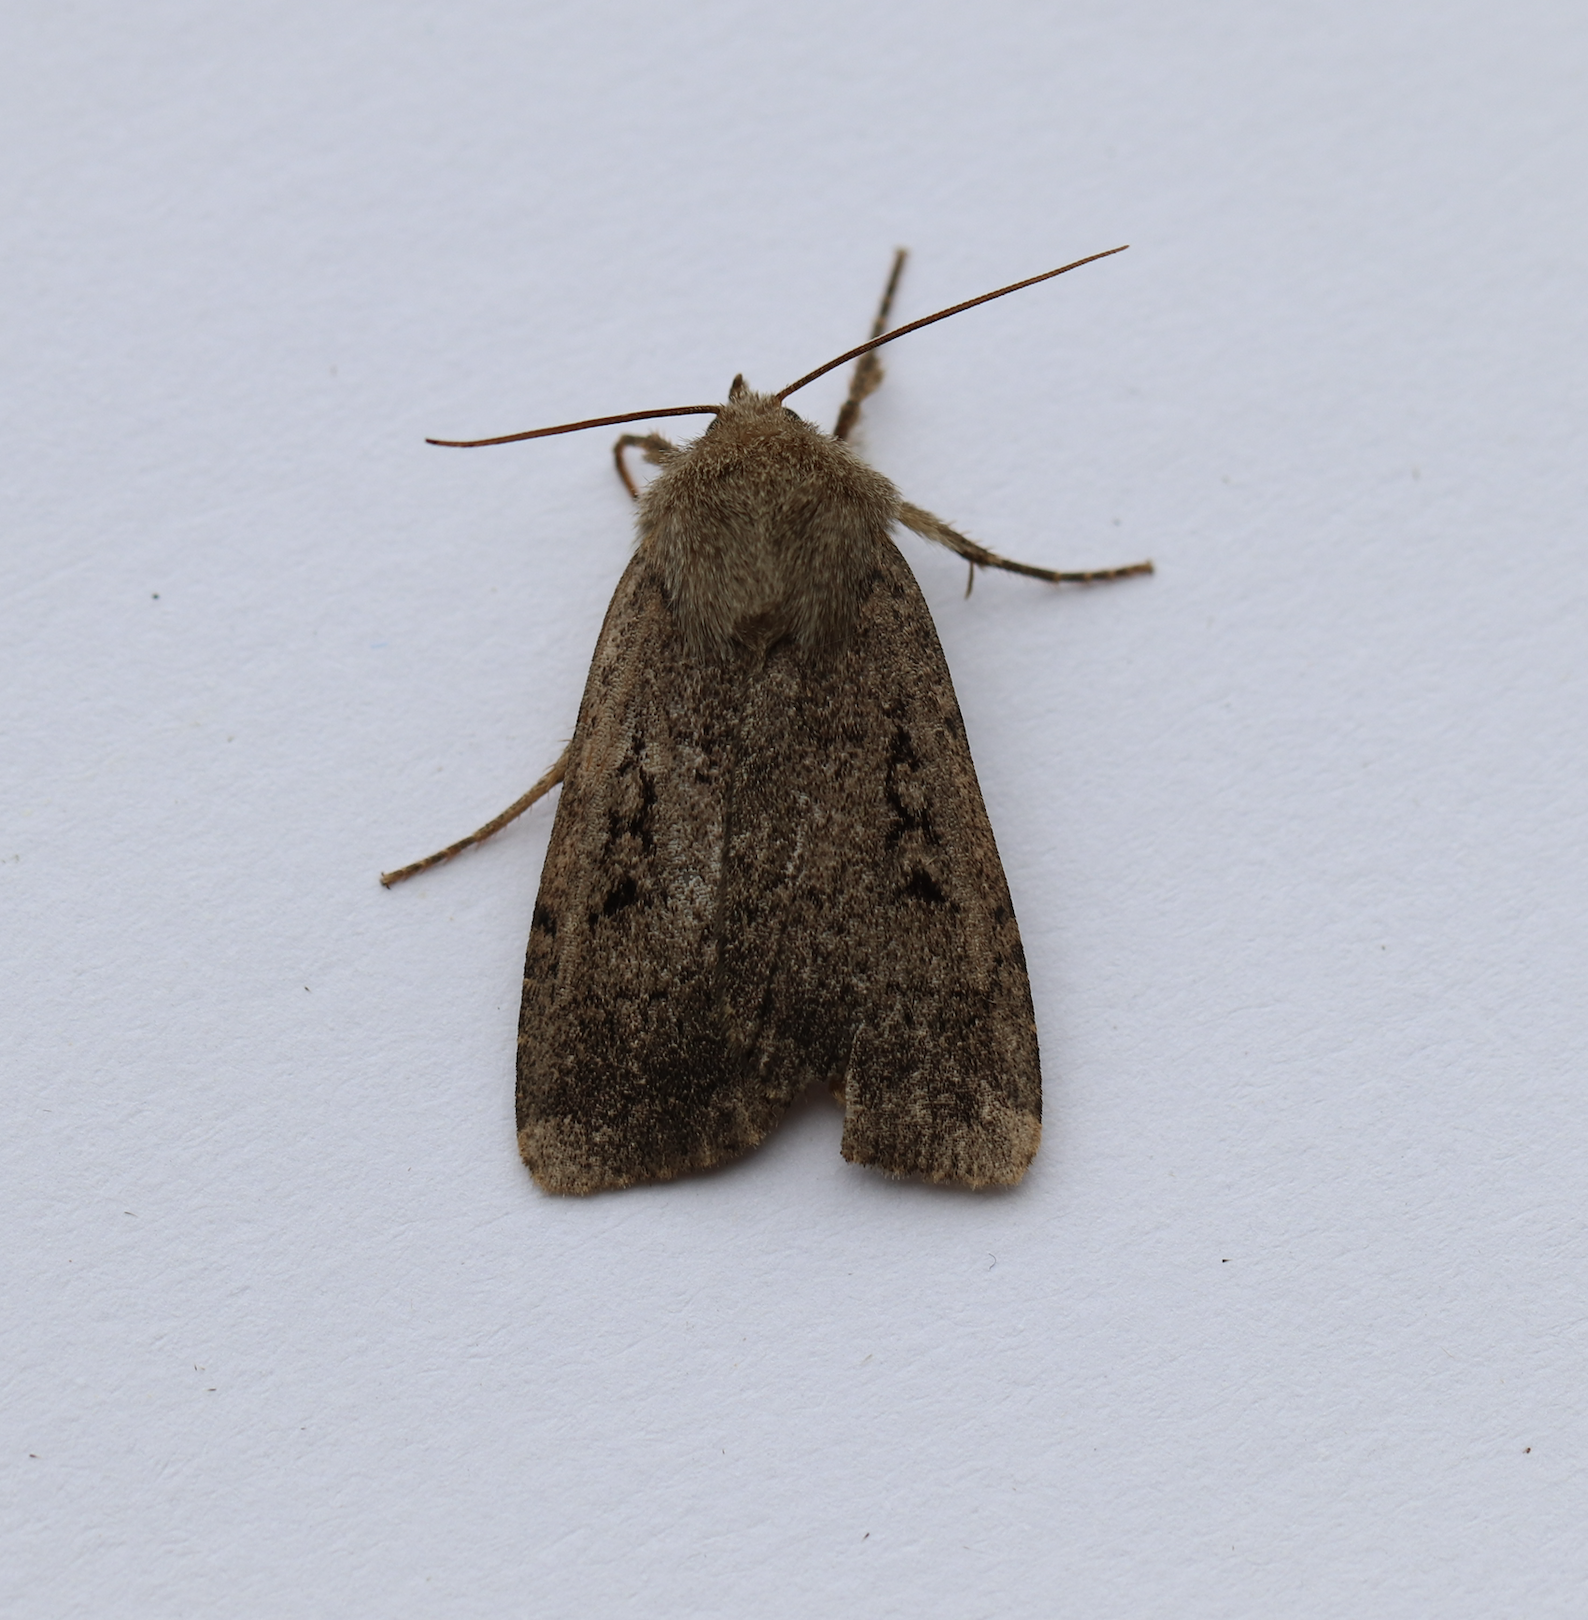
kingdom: Animalia
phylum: Arthropoda
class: Insecta
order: Lepidoptera
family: Noctuidae
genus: Spaelotis
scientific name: Spaelotis clandestina
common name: Clandestine dart
